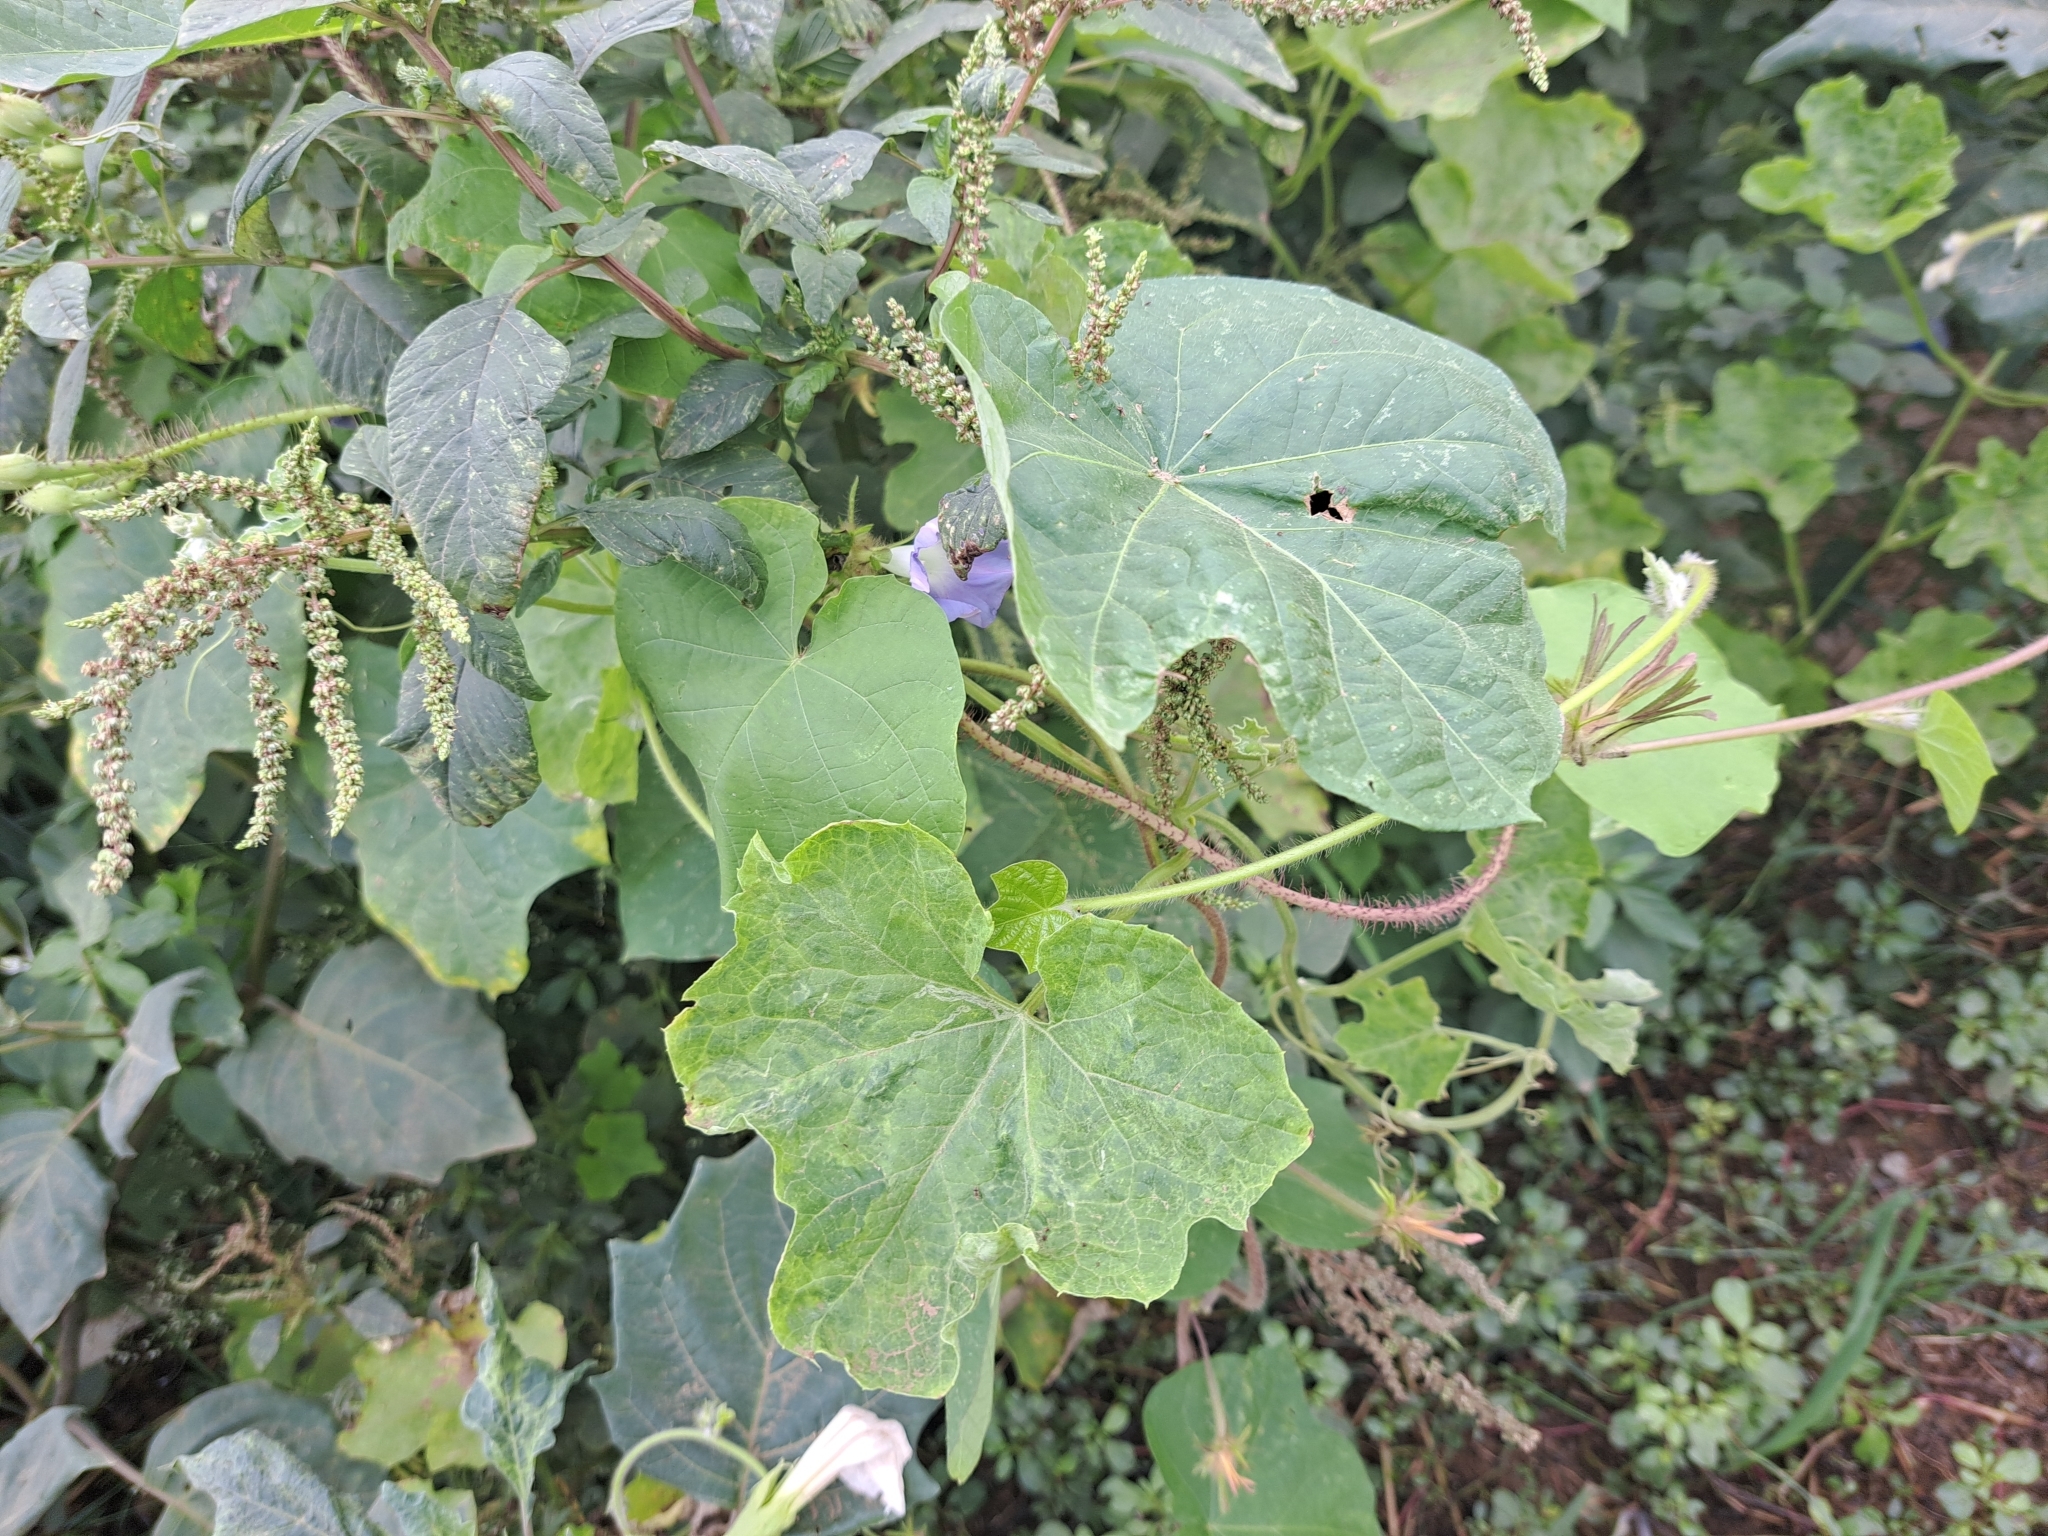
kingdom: Plantae
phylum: Tracheophyta
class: Magnoliopsida
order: Solanales
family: Convolvulaceae
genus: Ipomoea
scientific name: Ipomoea nil
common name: Japanese morning-glory
